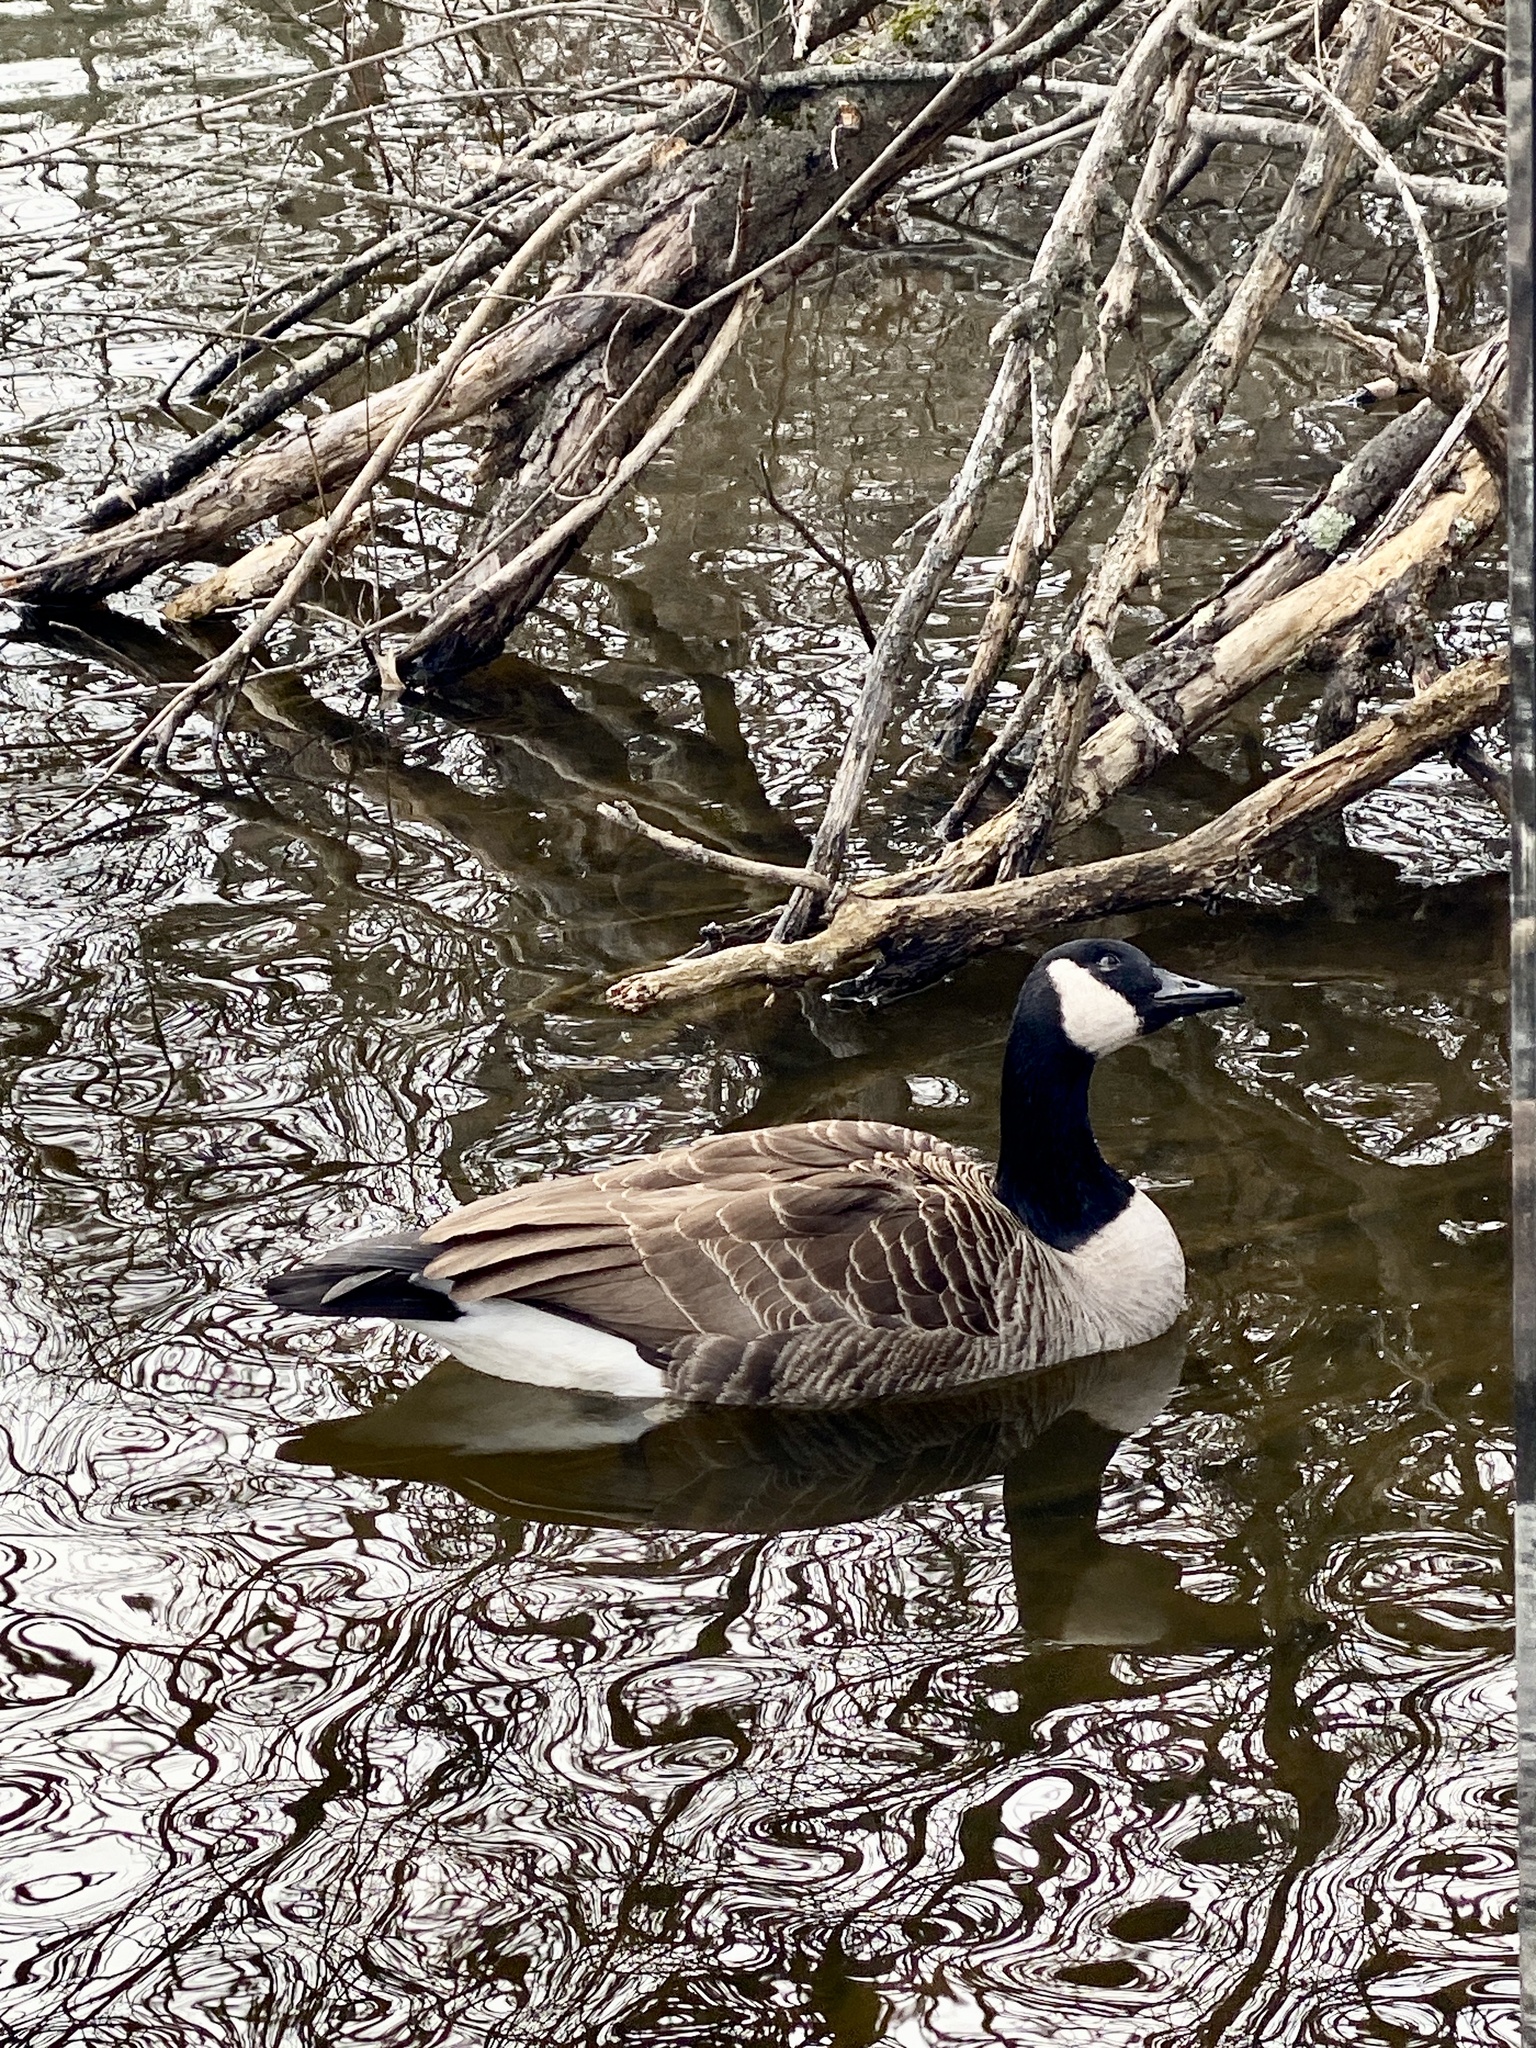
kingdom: Animalia
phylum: Chordata
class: Aves
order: Anseriformes
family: Anatidae
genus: Branta
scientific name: Branta canadensis
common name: Canada goose
